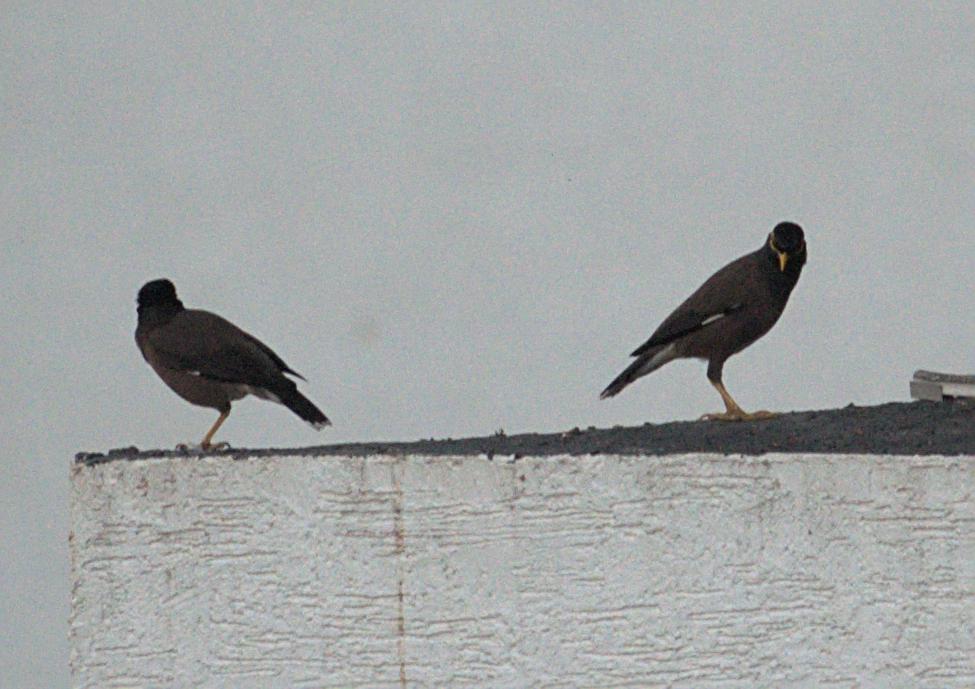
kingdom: Animalia
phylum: Chordata
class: Aves
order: Passeriformes
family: Sturnidae
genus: Acridotheres
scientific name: Acridotheres tristis
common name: Common myna
